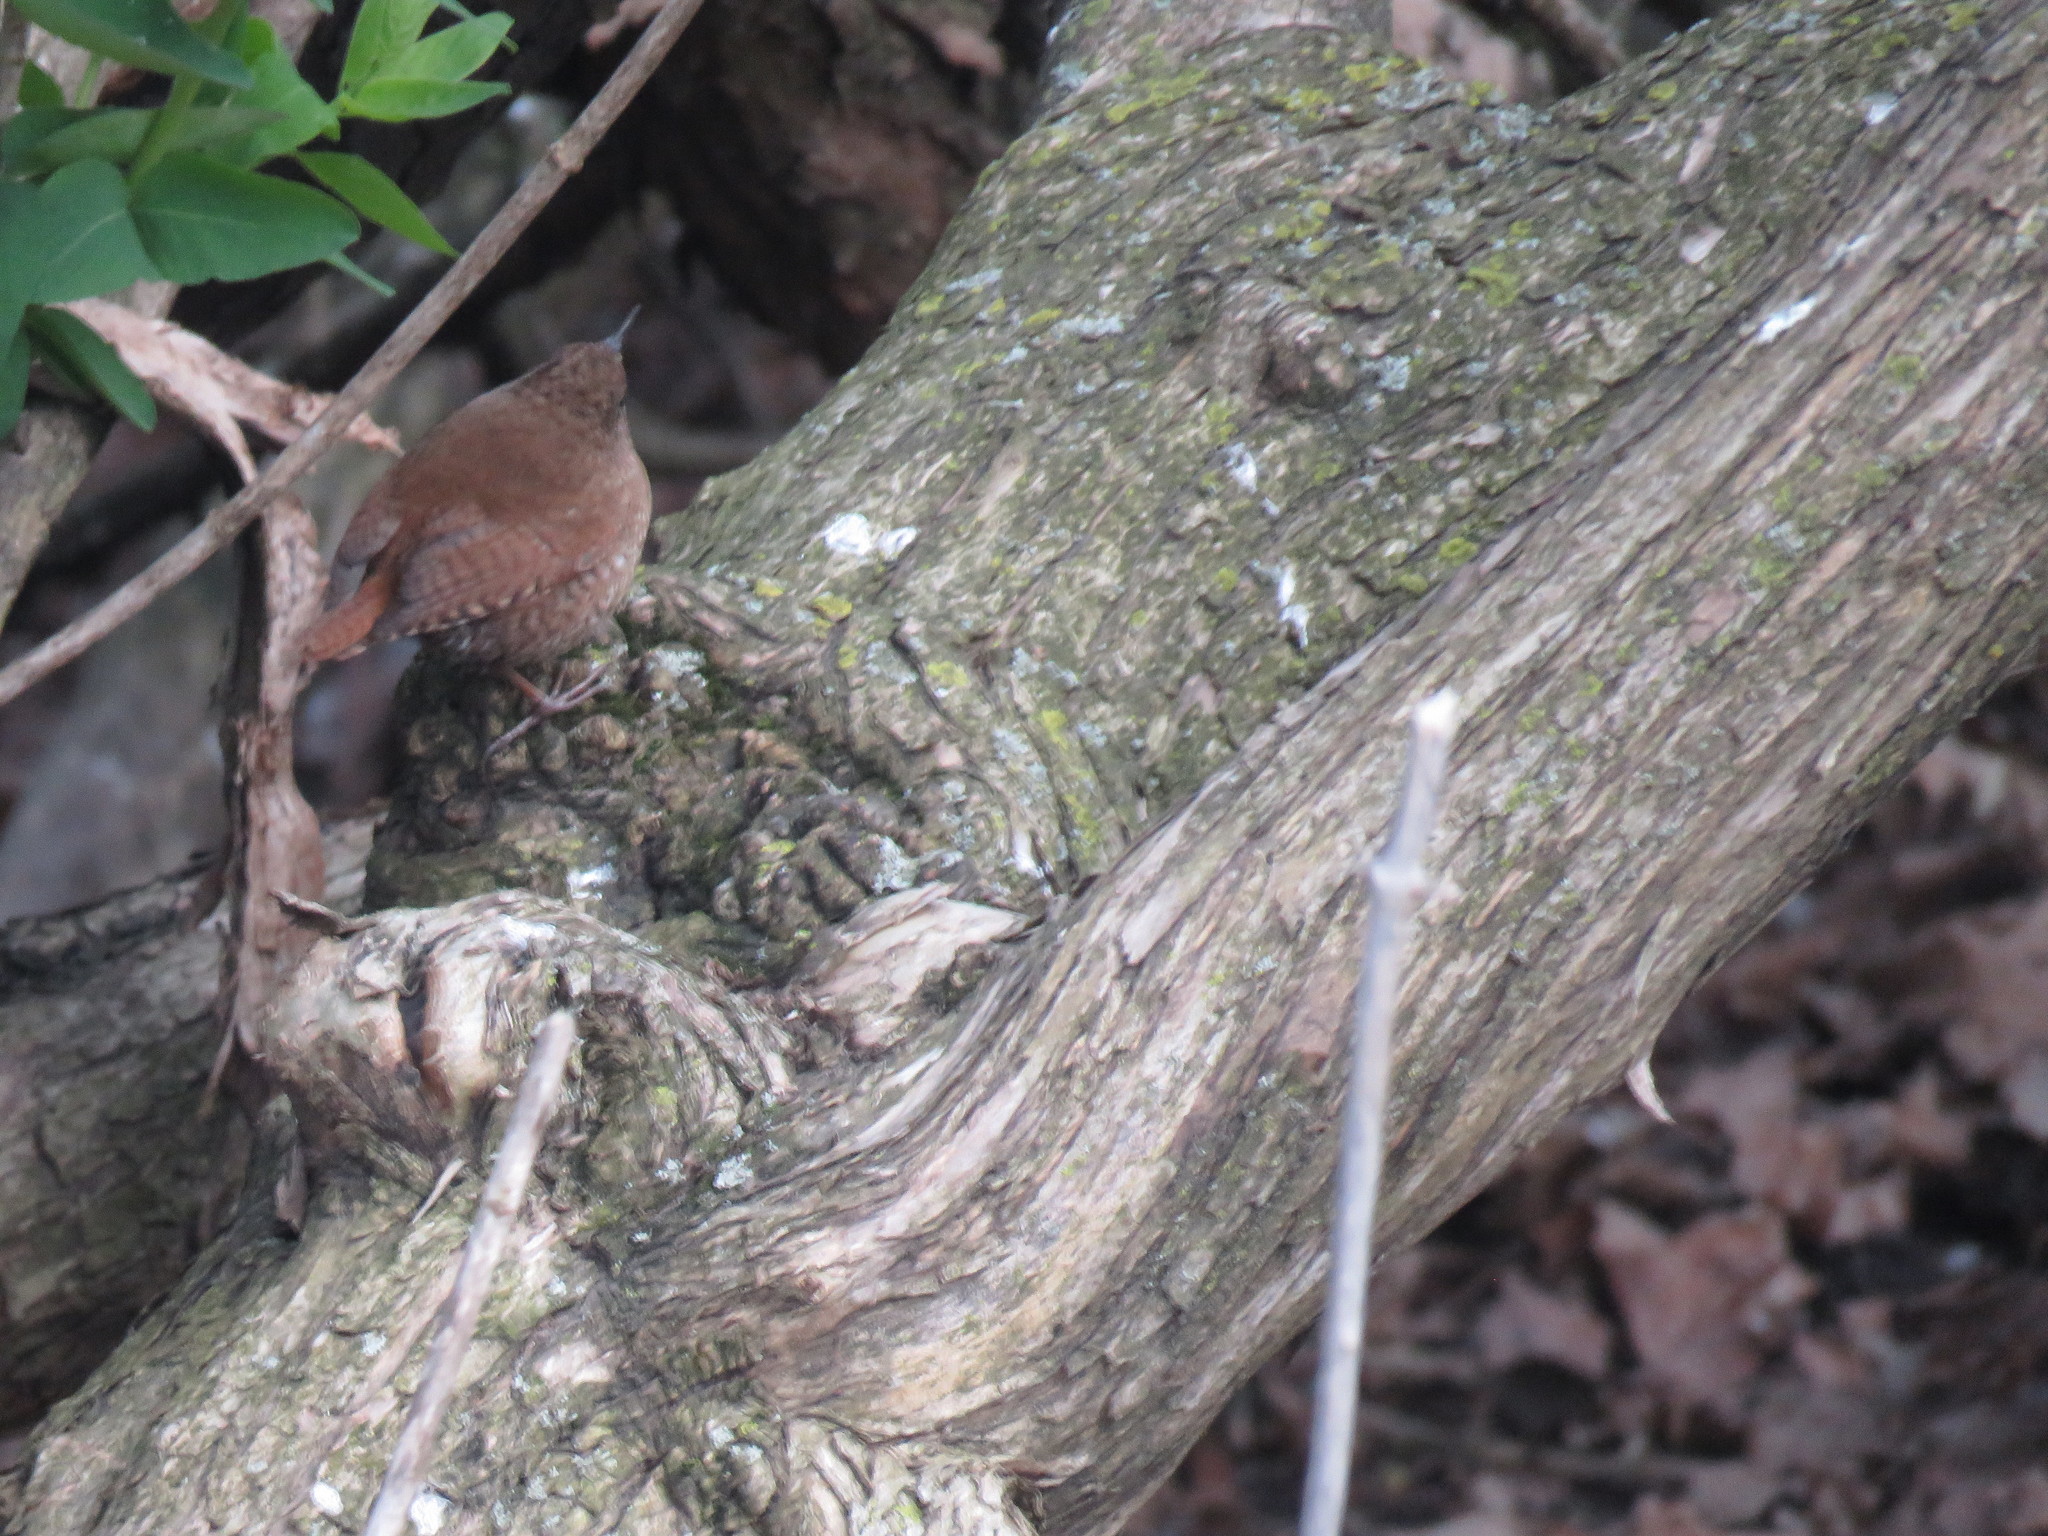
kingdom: Animalia
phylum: Chordata
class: Aves
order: Passeriformes
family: Troglodytidae
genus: Troglodytes
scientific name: Troglodytes hiemalis
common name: Winter wren
